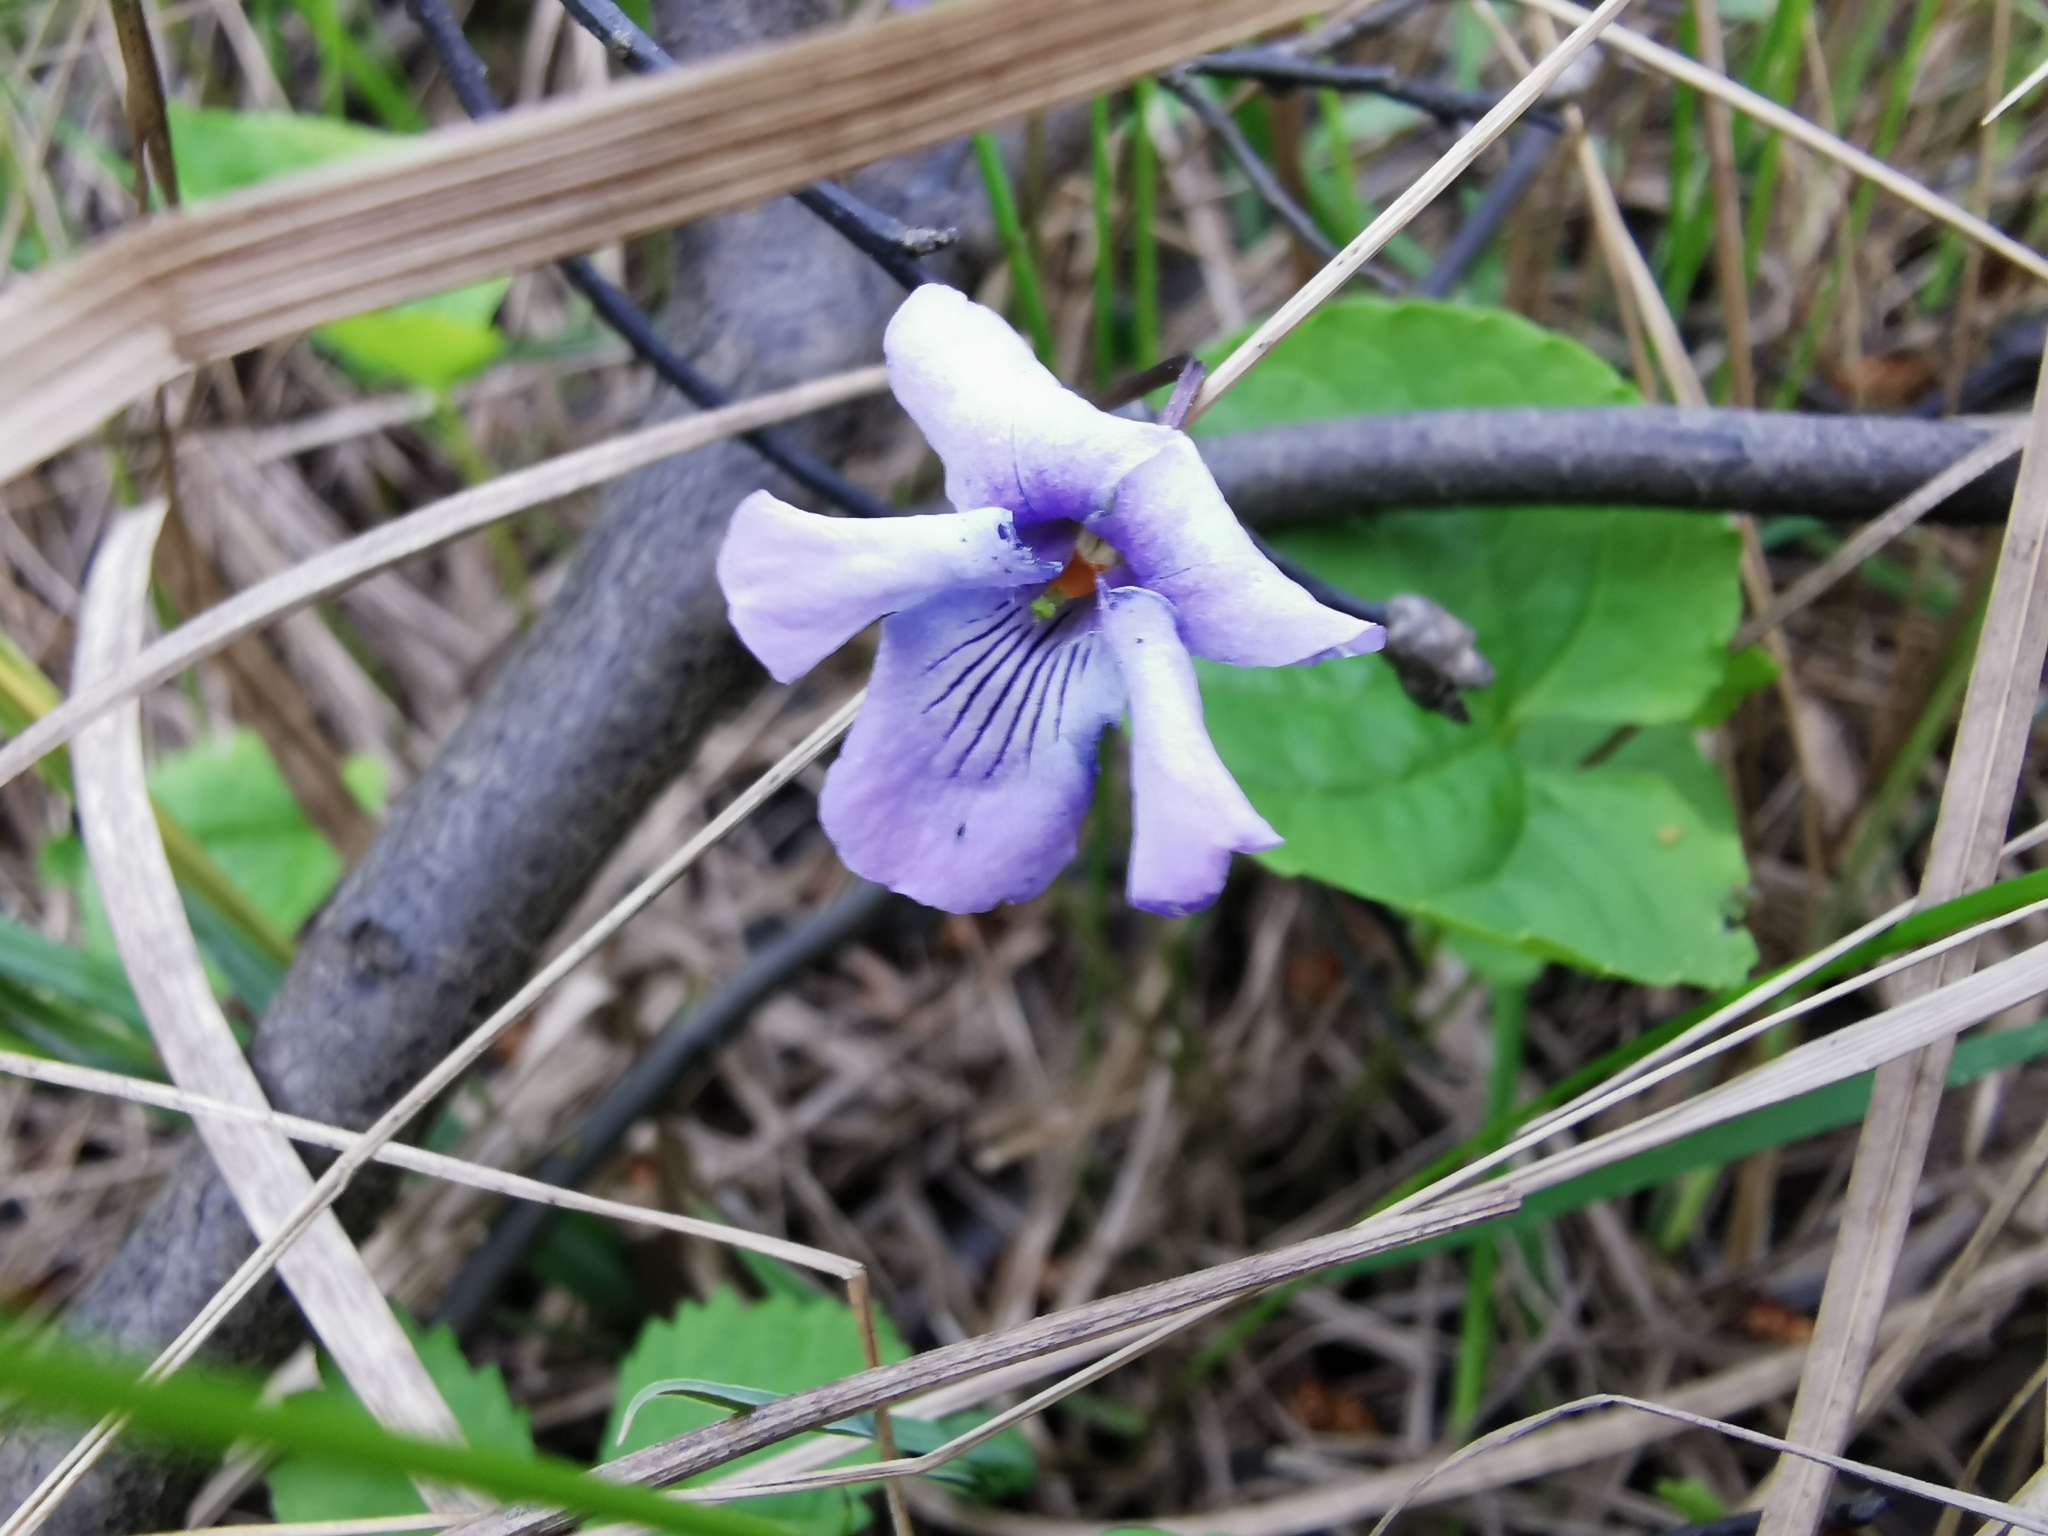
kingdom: Plantae
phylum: Tracheophyta
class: Magnoliopsida
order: Malpighiales
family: Violaceae
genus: Viola
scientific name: Viola epipsila
